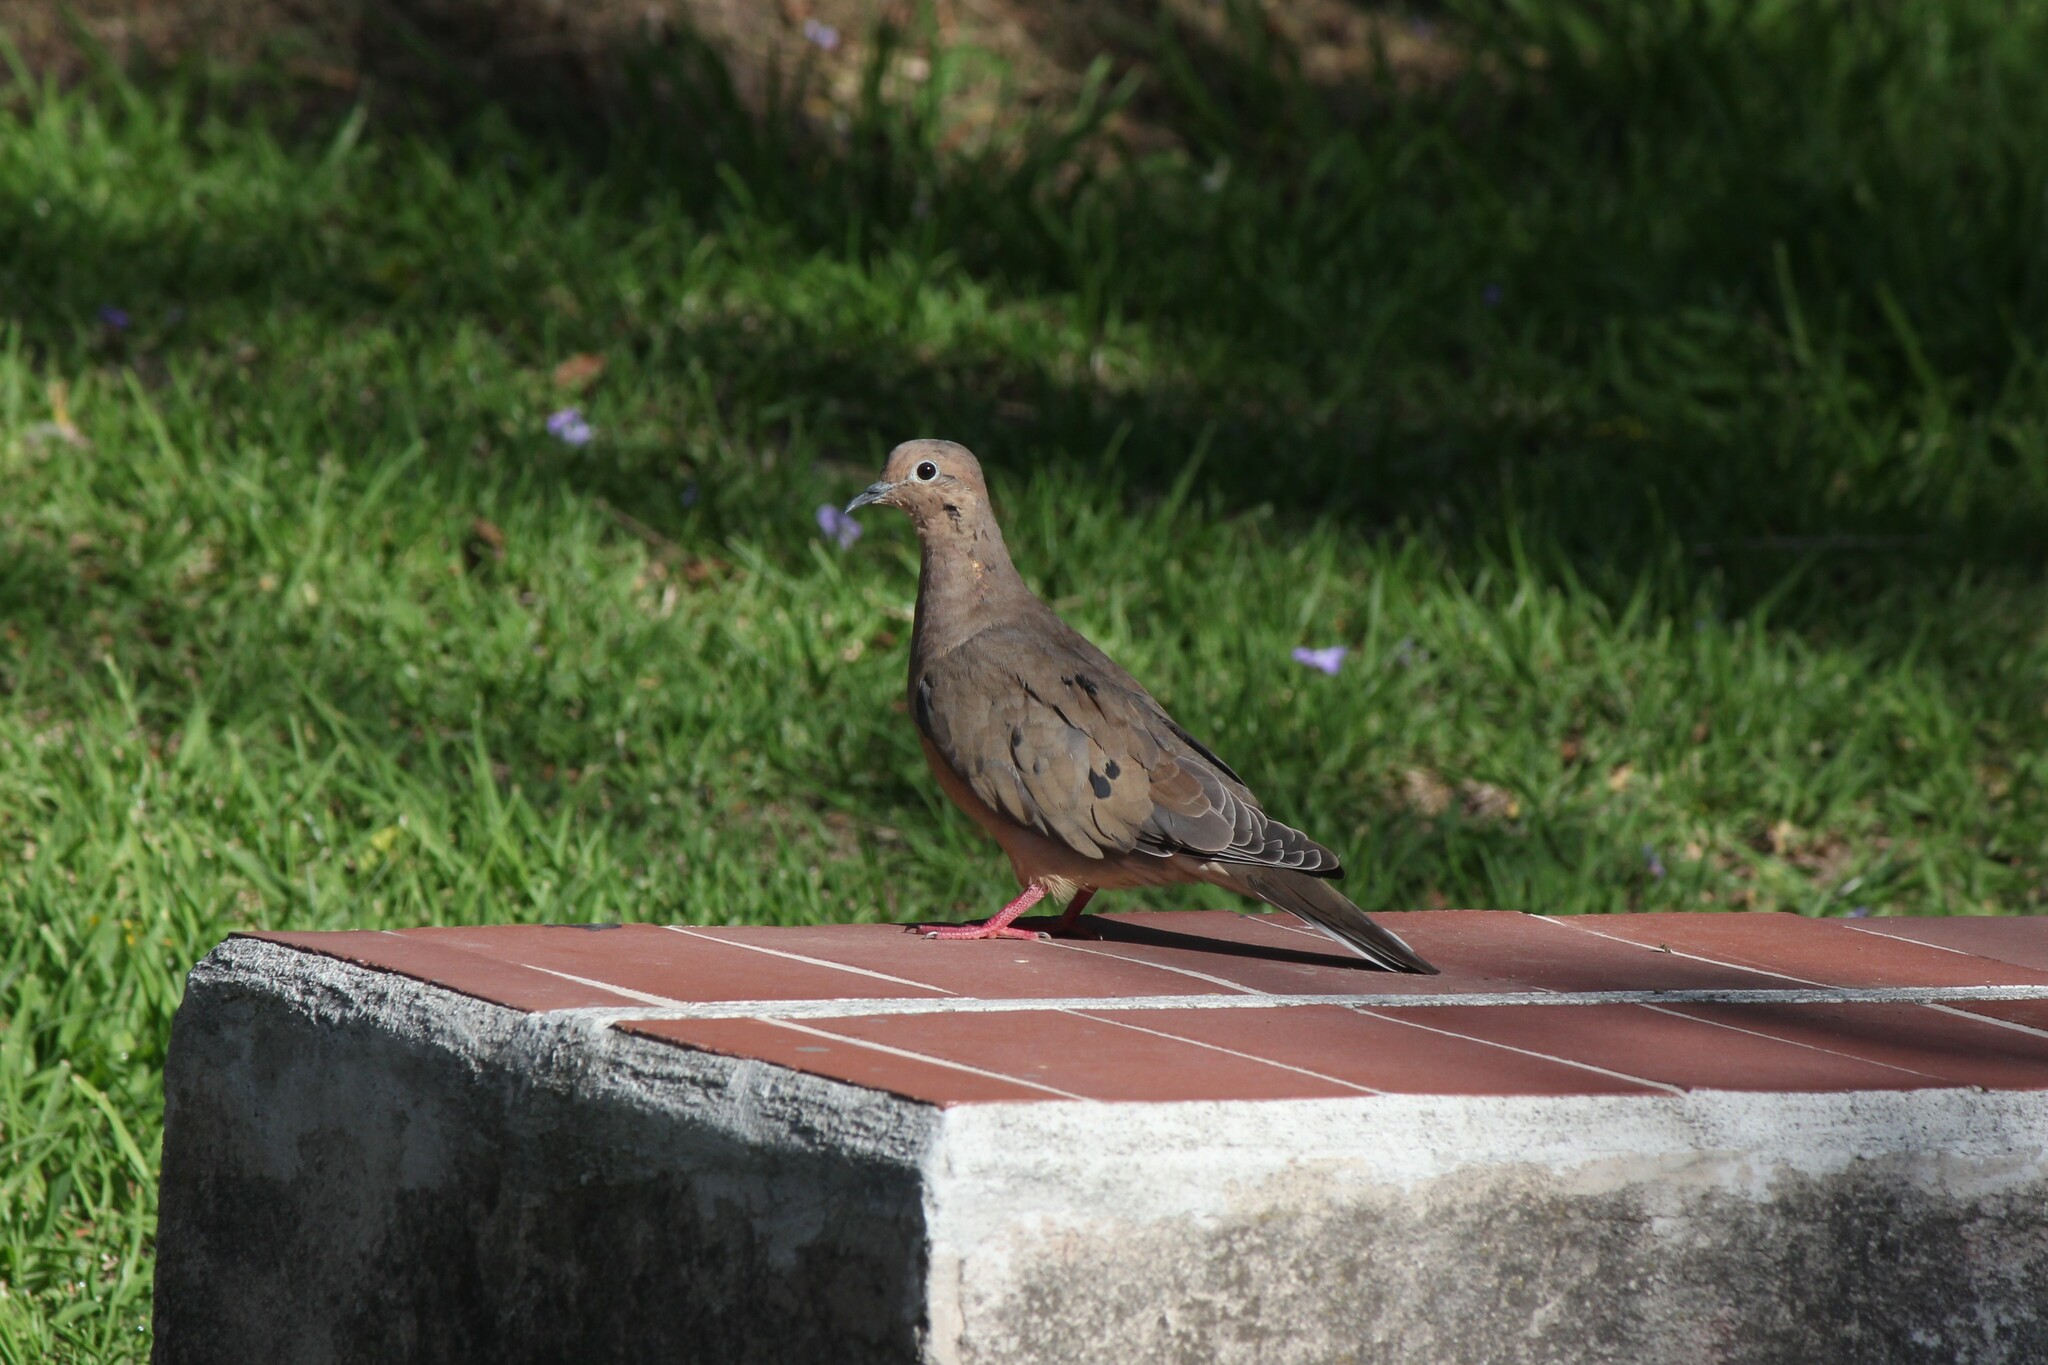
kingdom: Animalia
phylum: Chordata
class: Aves
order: Columbiformes
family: Columbidae
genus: Zenaida
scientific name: Zenaida auriculata
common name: Eared dove
